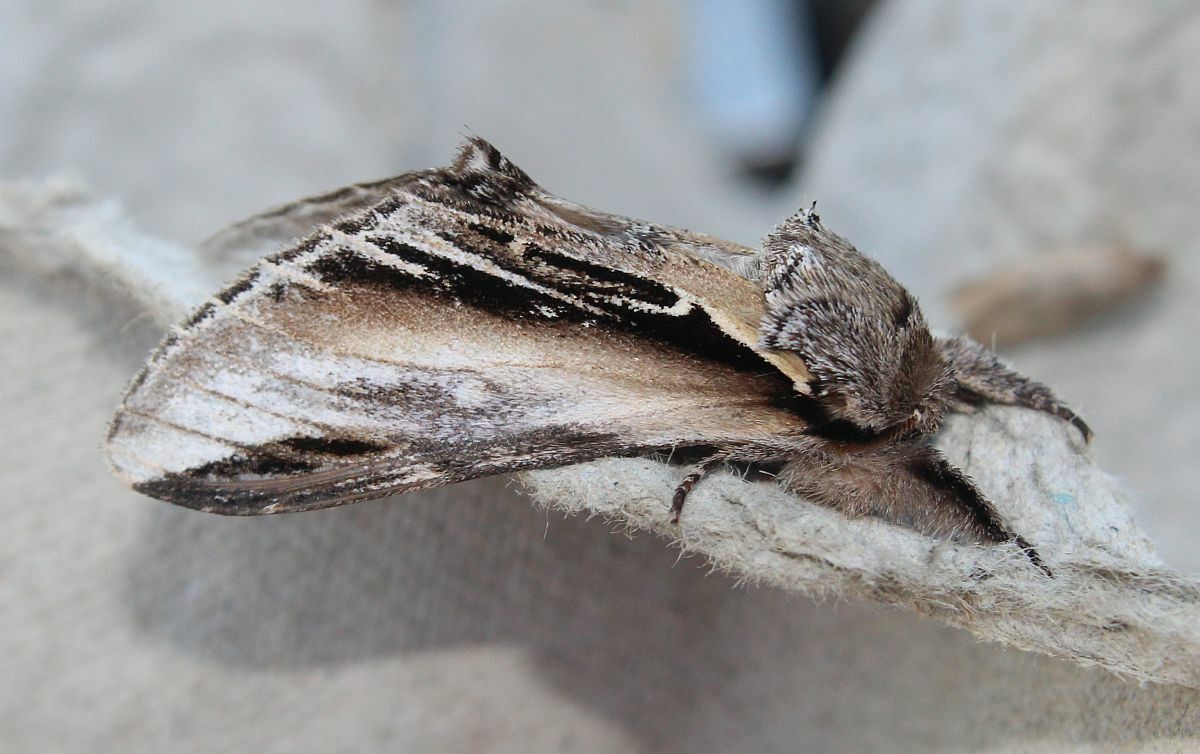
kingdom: Animalia
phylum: Arthropoda
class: Insecta
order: Lepidoptera
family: Notodontidae
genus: Pheosia
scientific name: Pheosia tremula
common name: Swallow prominent
